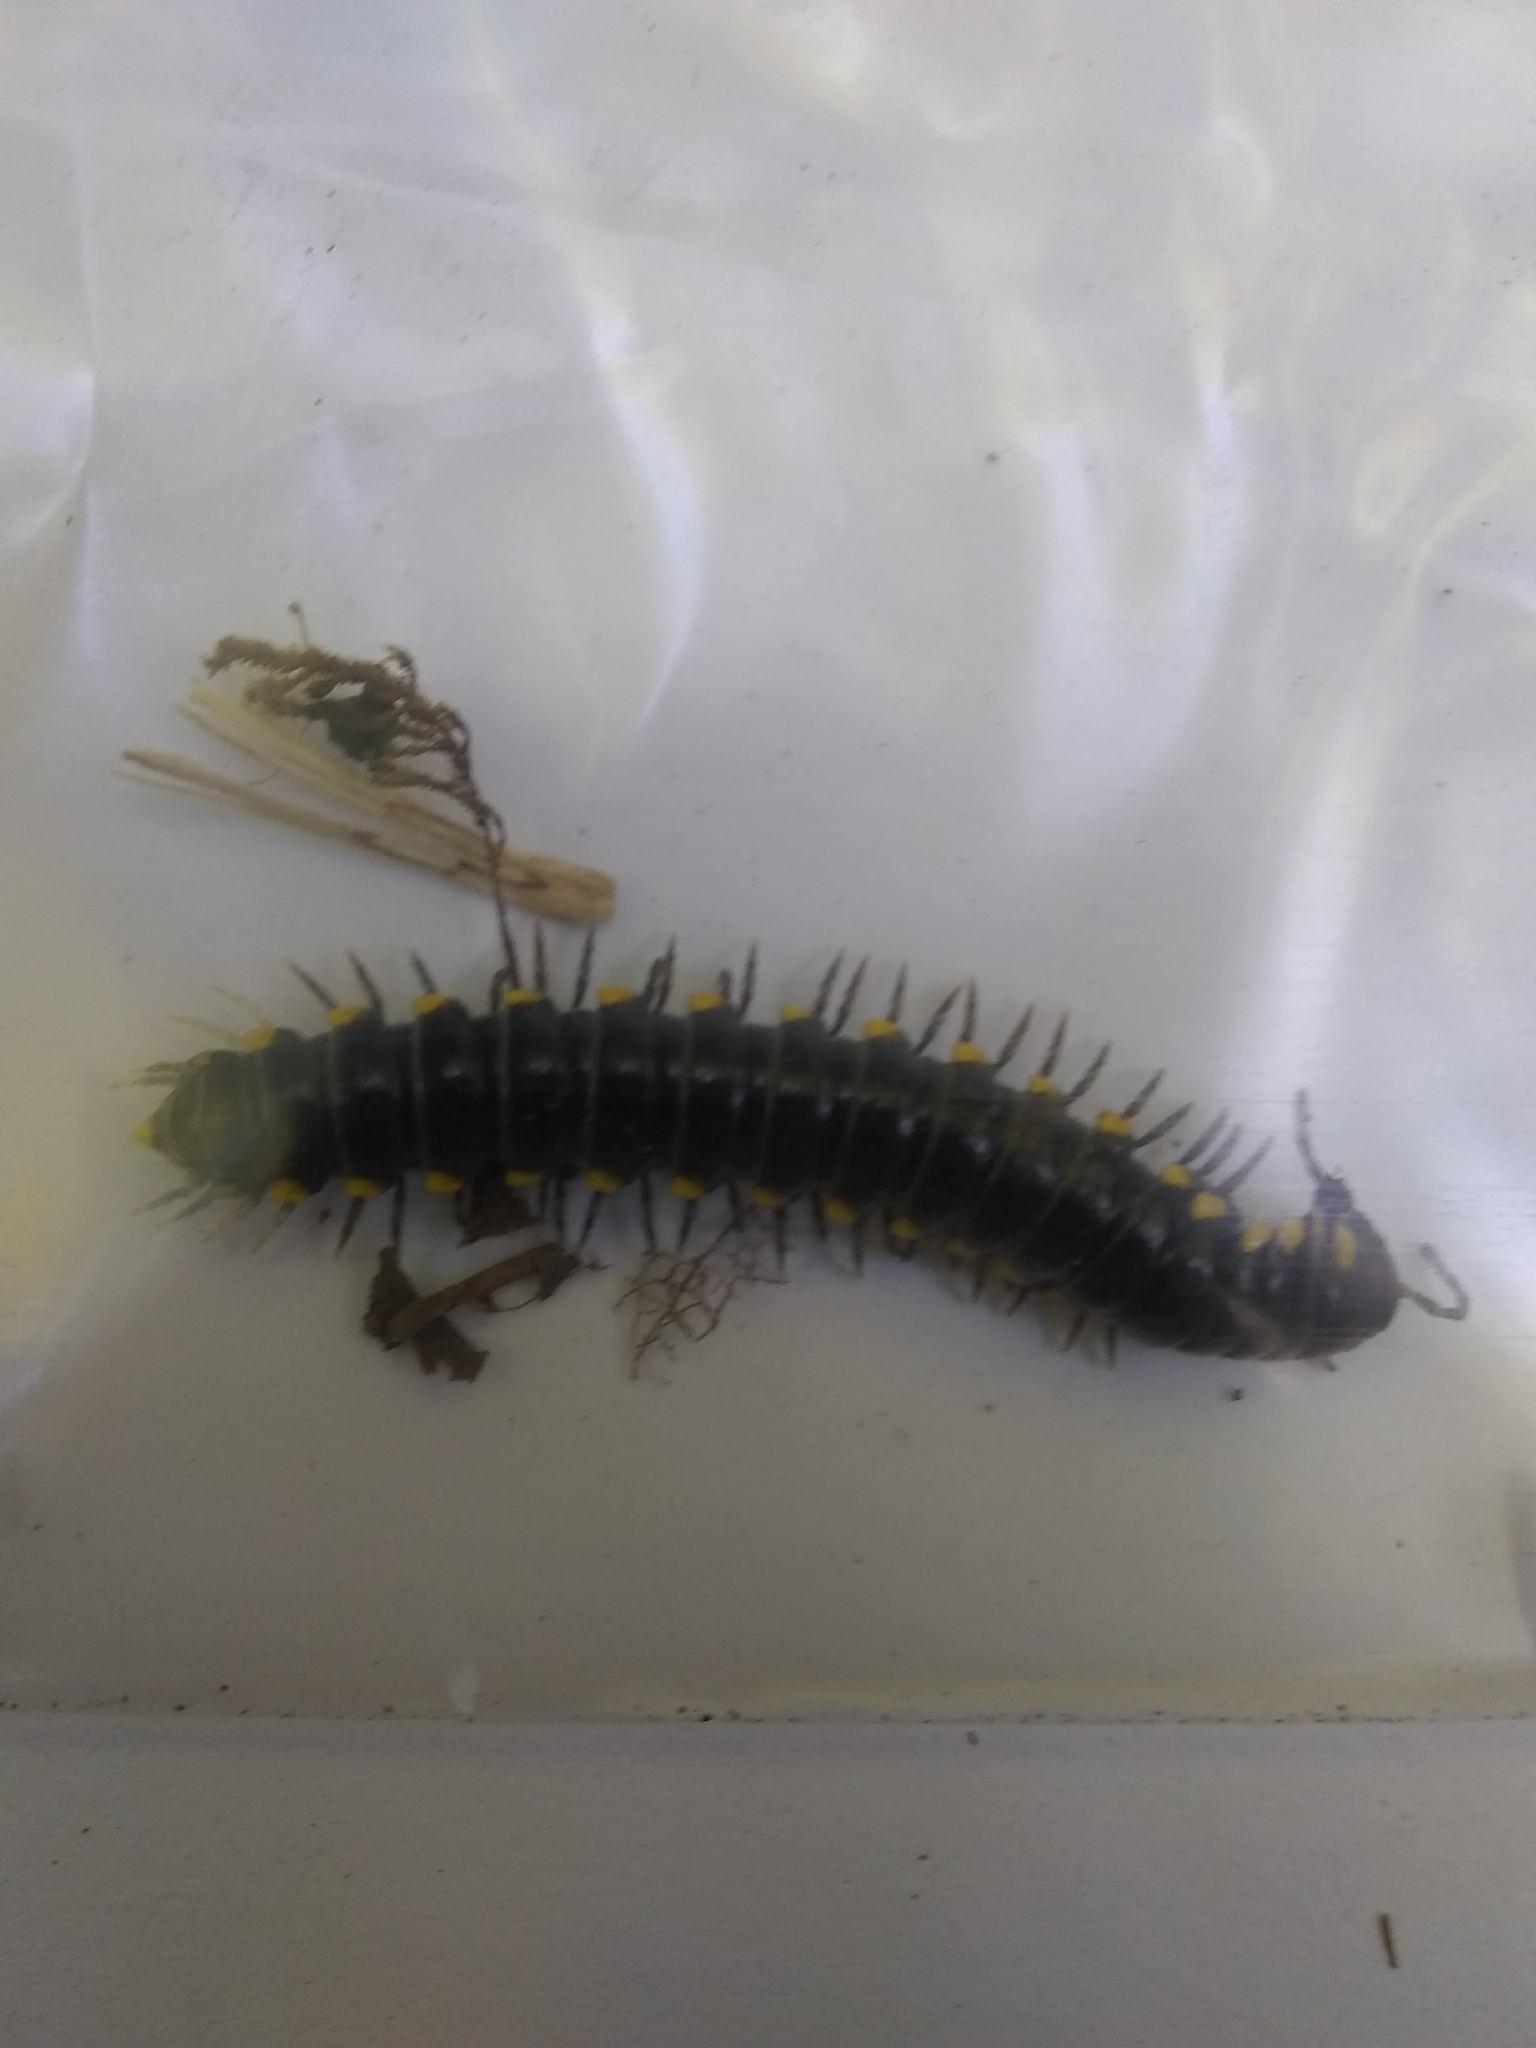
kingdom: Animalia
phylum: Arthropoda
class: Diplopoda
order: Polydesmida
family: Xystodesmidae
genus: Harpaphe
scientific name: Harpaphe haydeniana
